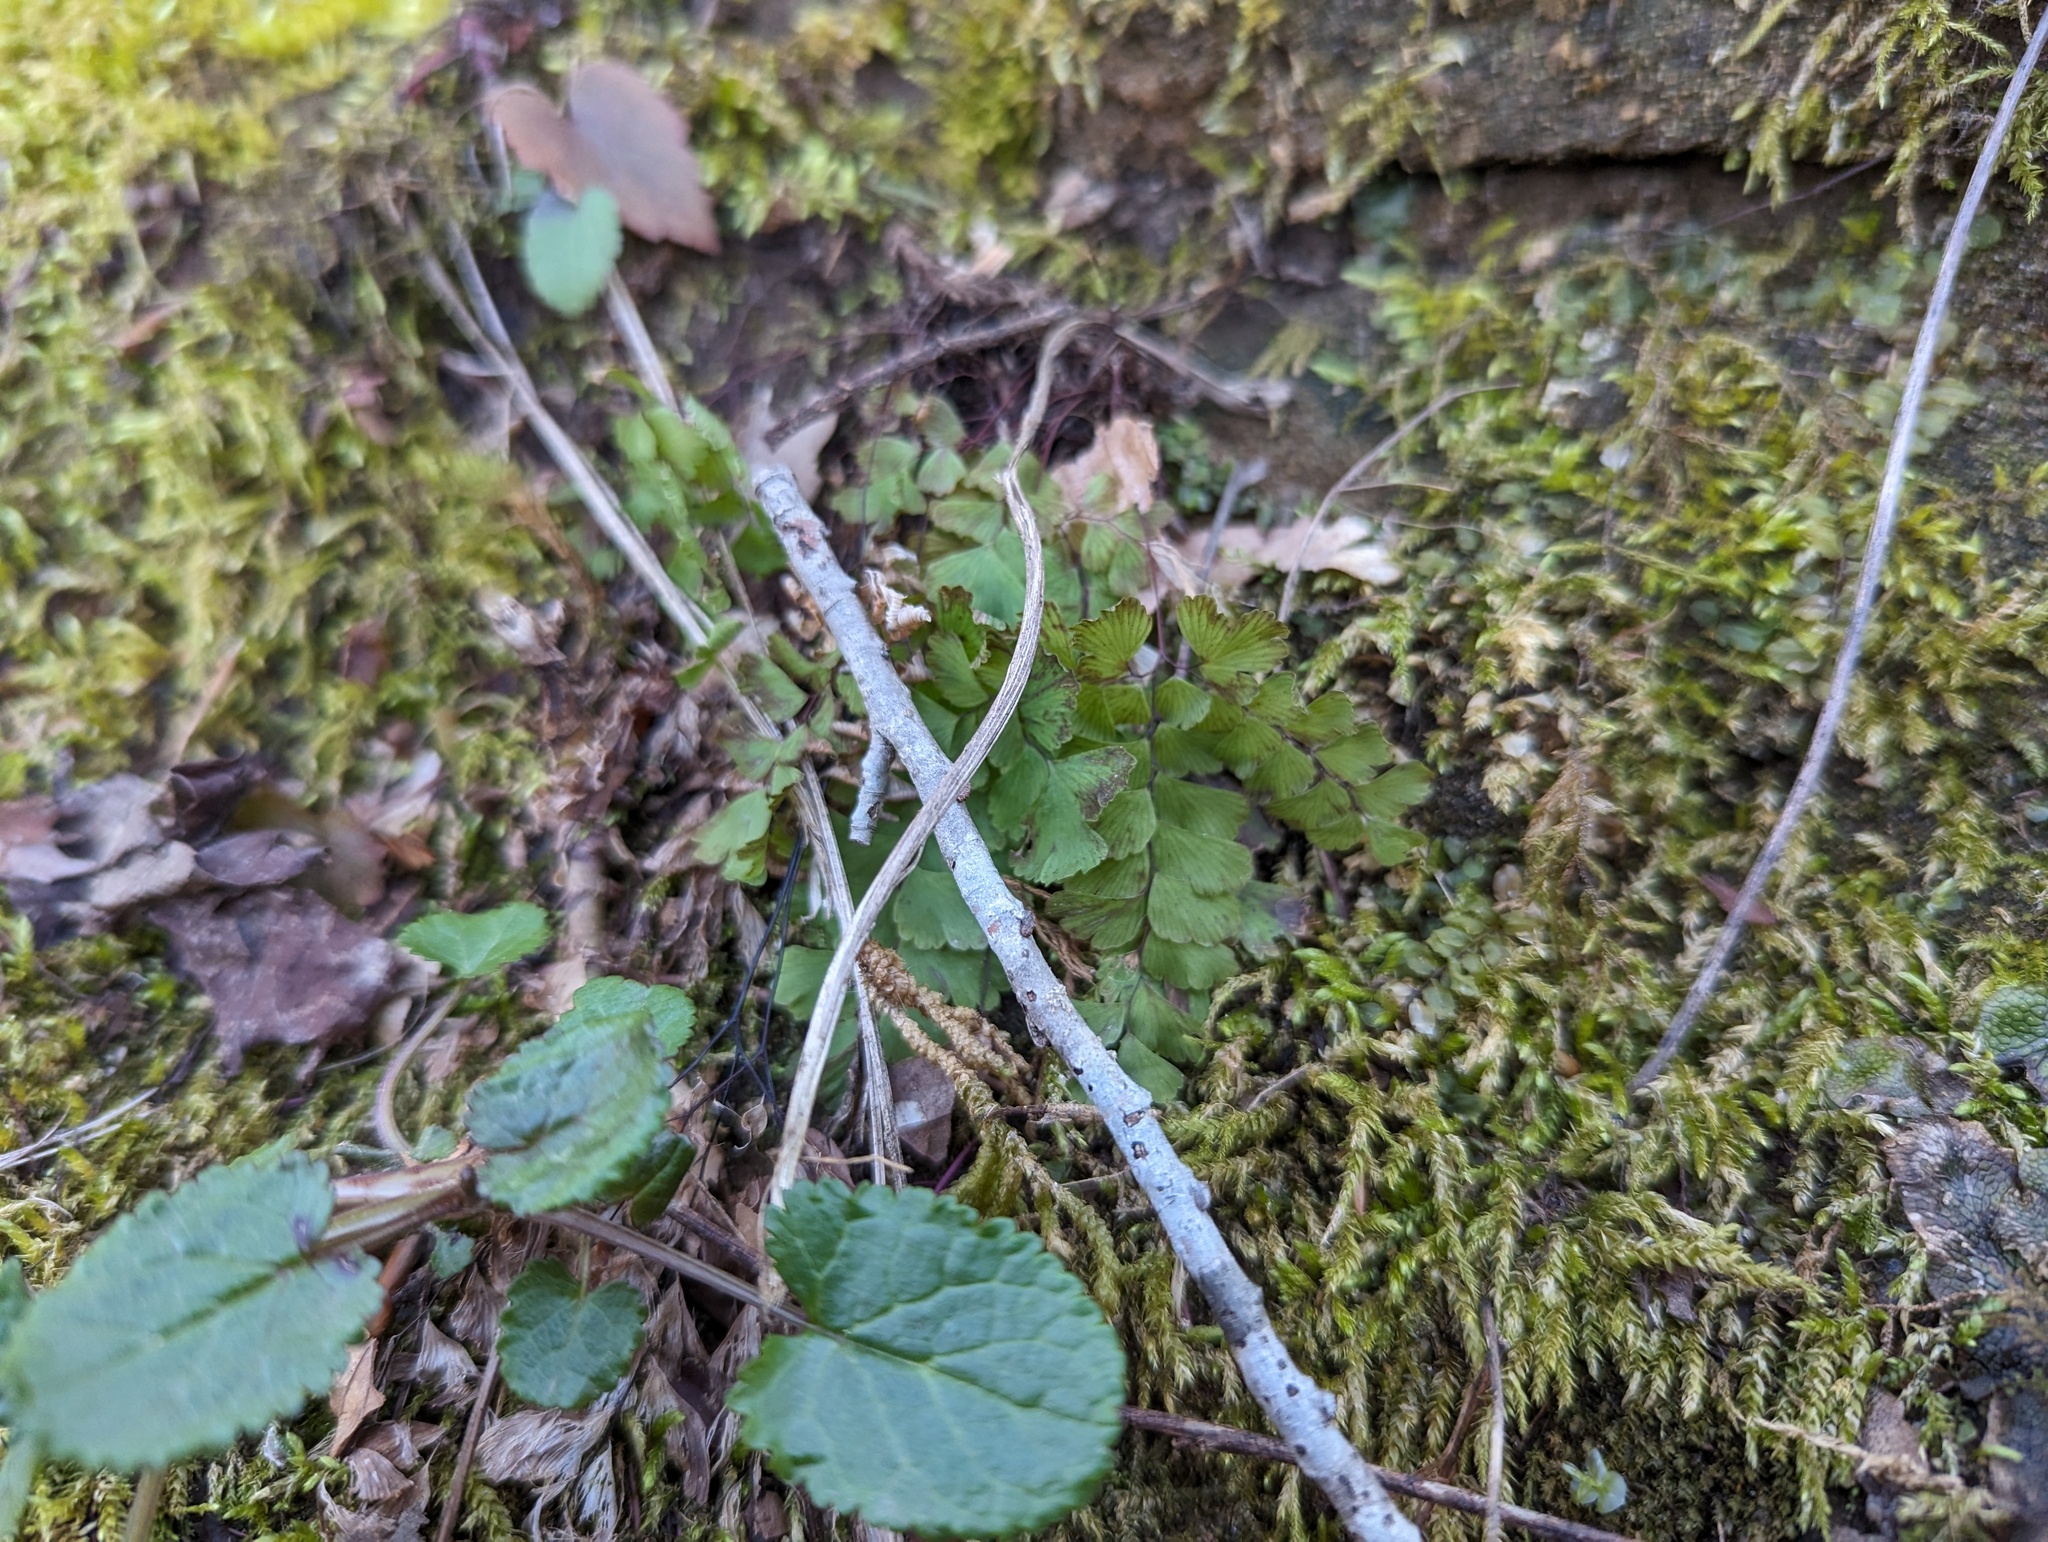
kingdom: Plantae
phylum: Tracheophyta
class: Polypodiopsida
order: Polypodiales
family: Pteridaceae
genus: Adiantum
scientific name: Adiantum pedatum
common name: Five-finger fern
